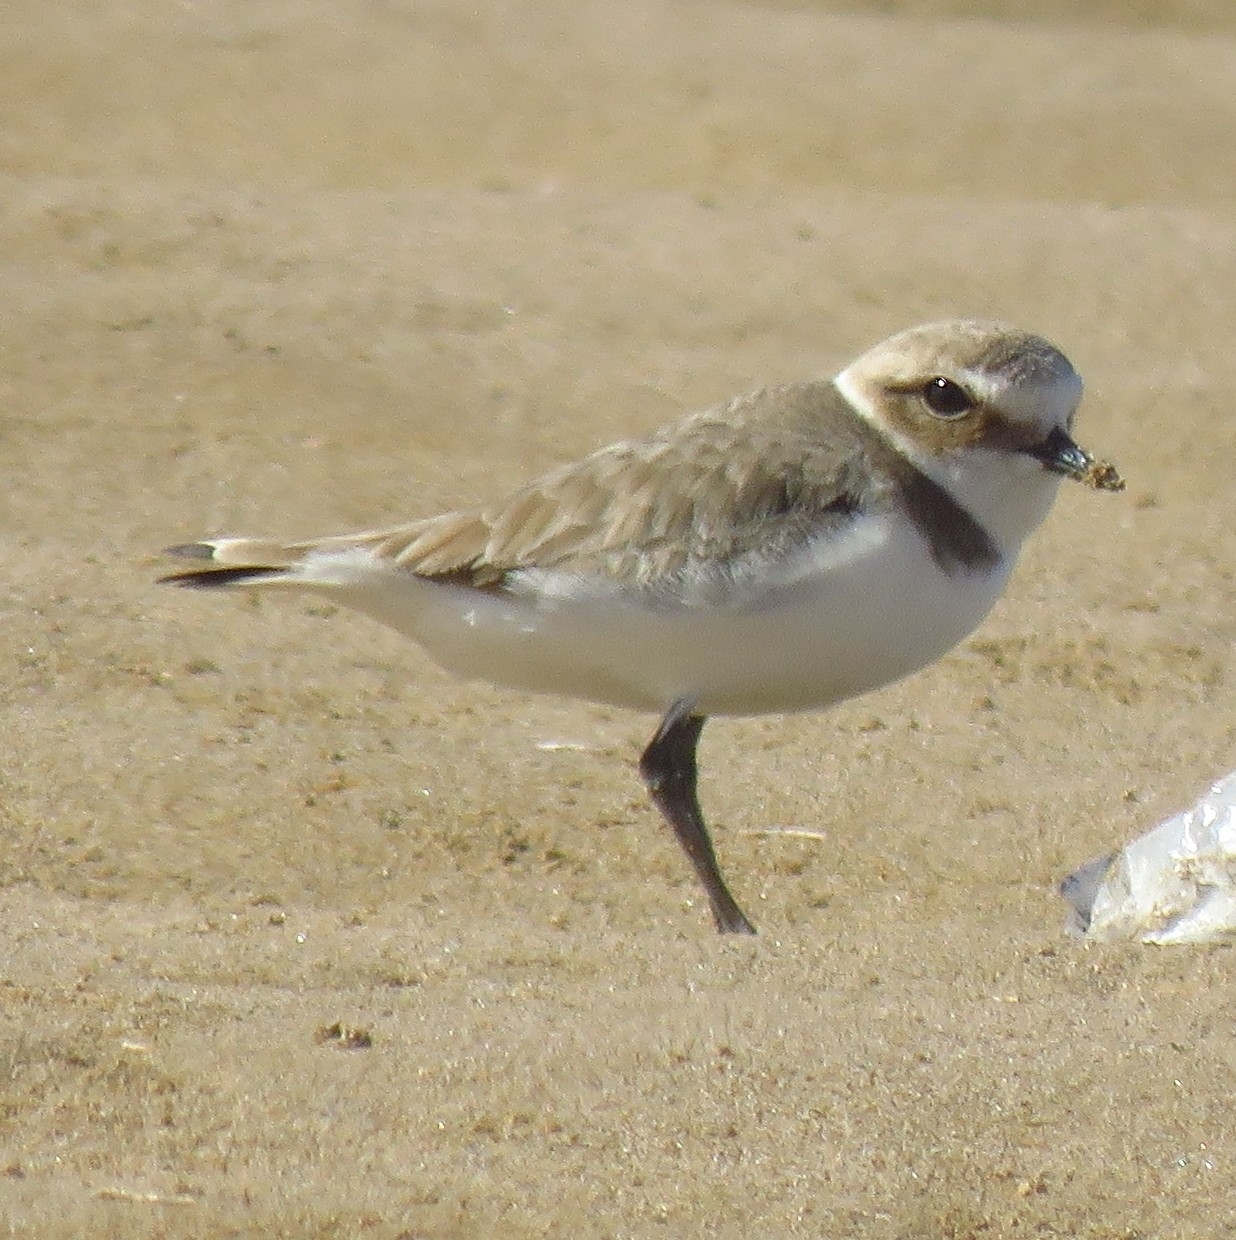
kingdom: Animalia
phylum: Chordata
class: Aves
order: Charadriiformes
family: Charadriidae
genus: Charadrius
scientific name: Charadrius alexandrinus
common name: Kentish plover
